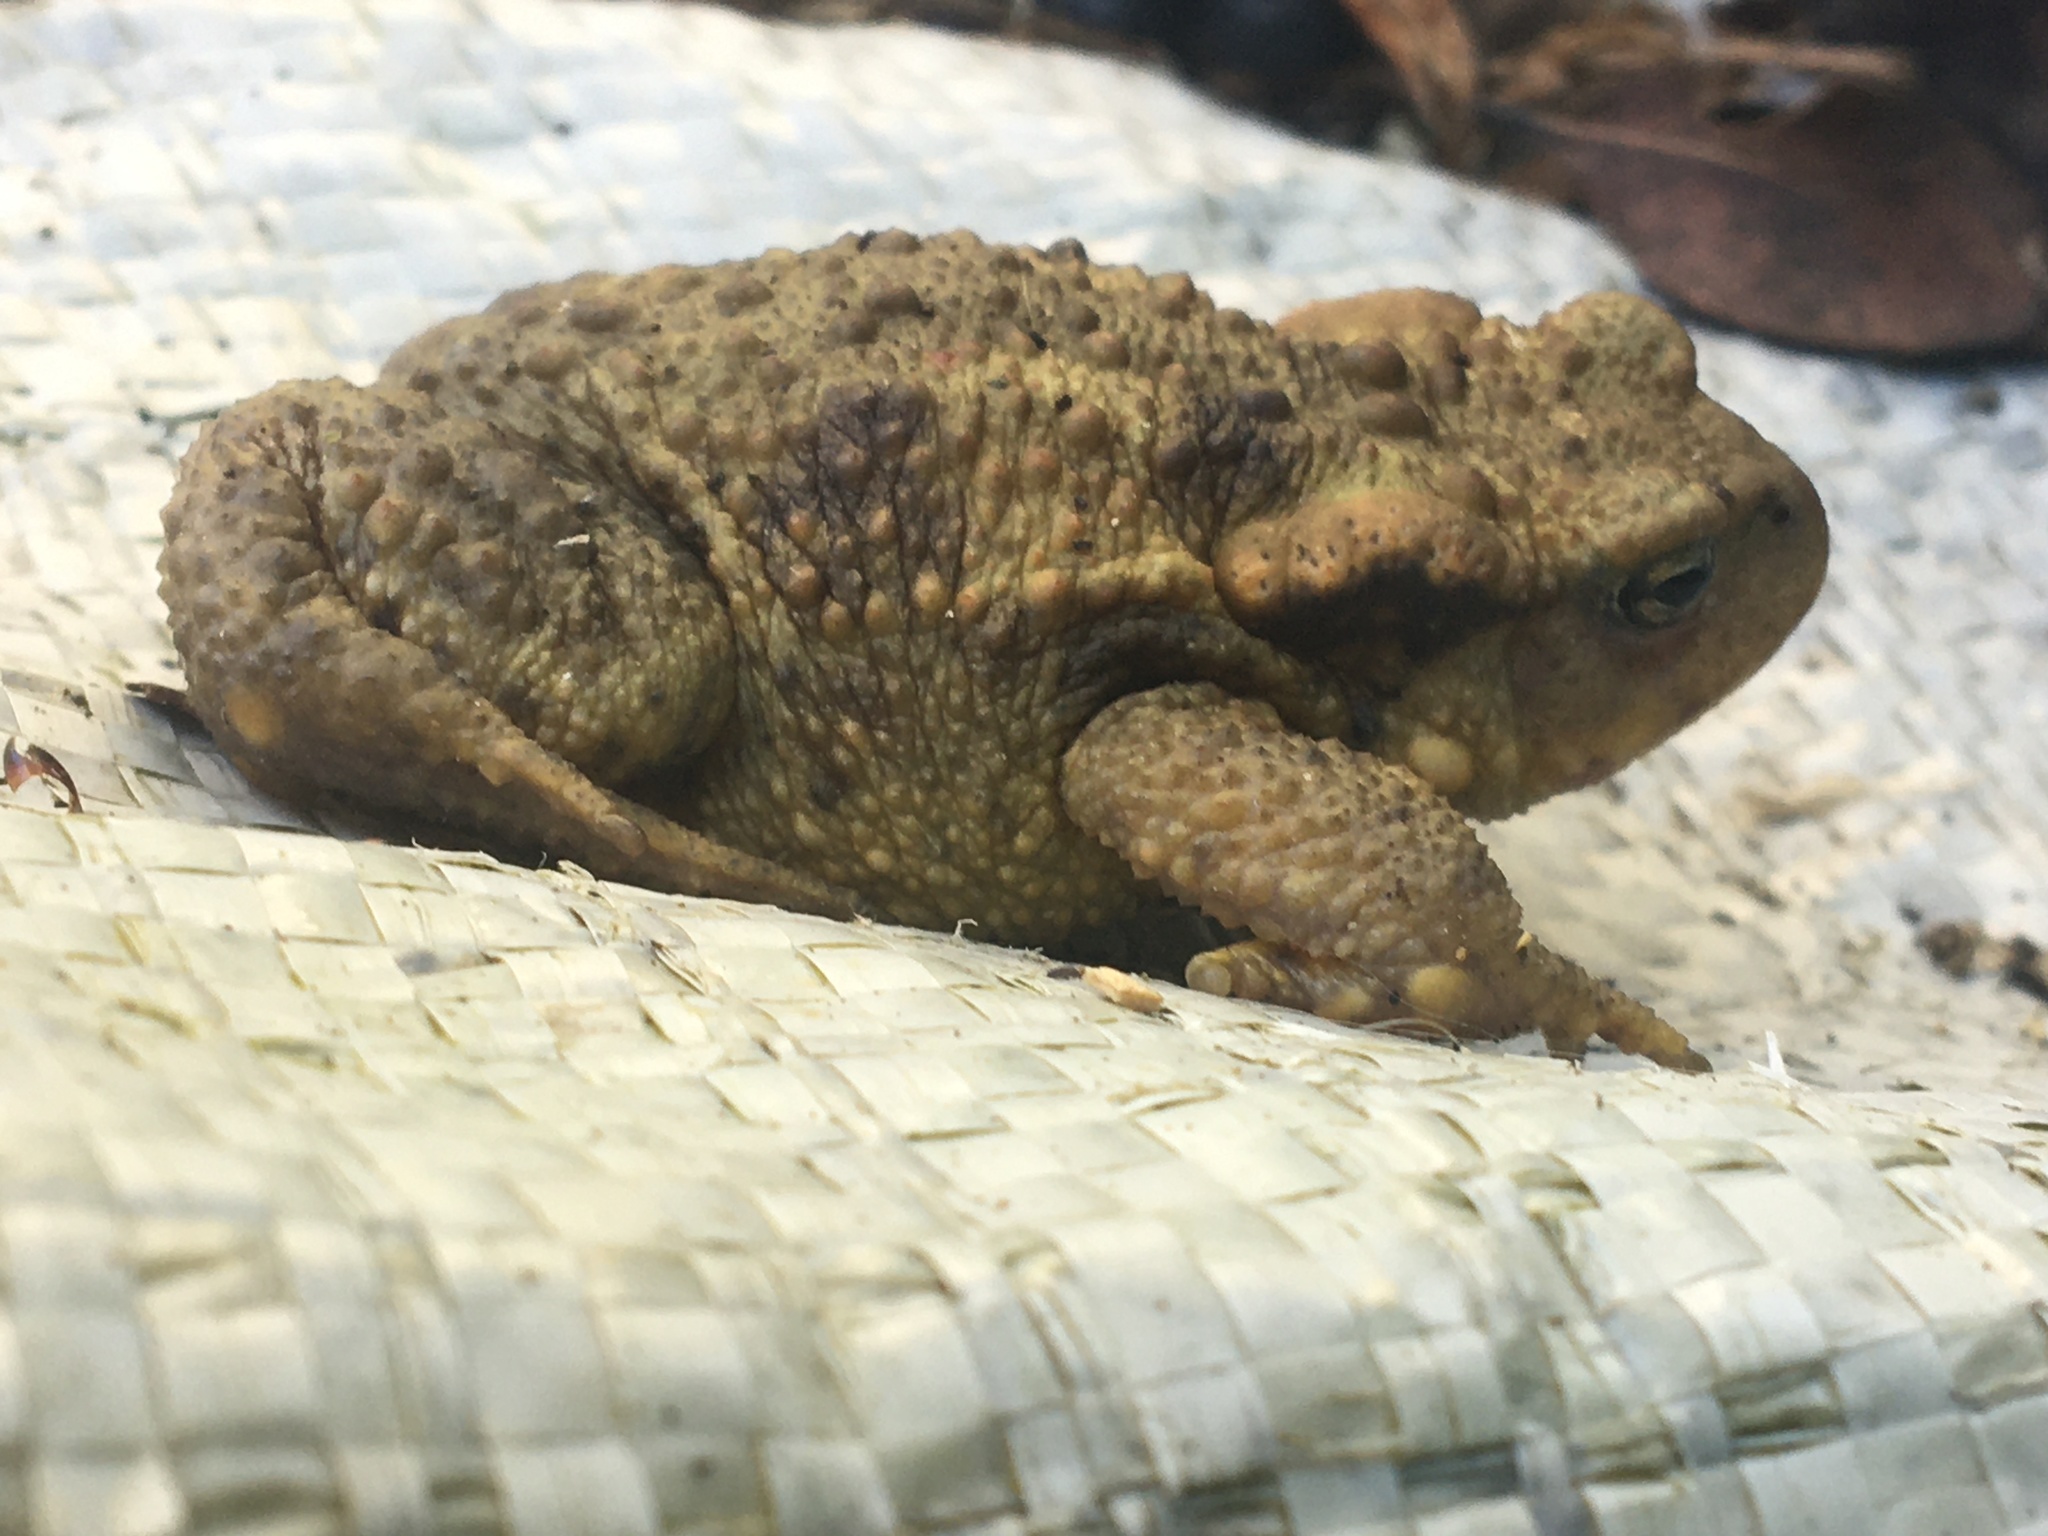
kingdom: Animalia
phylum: Chordata
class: Amphibia
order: Anura
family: Bufonidae
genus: Bufo
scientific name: Bufo spinosus
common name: Western common toad
